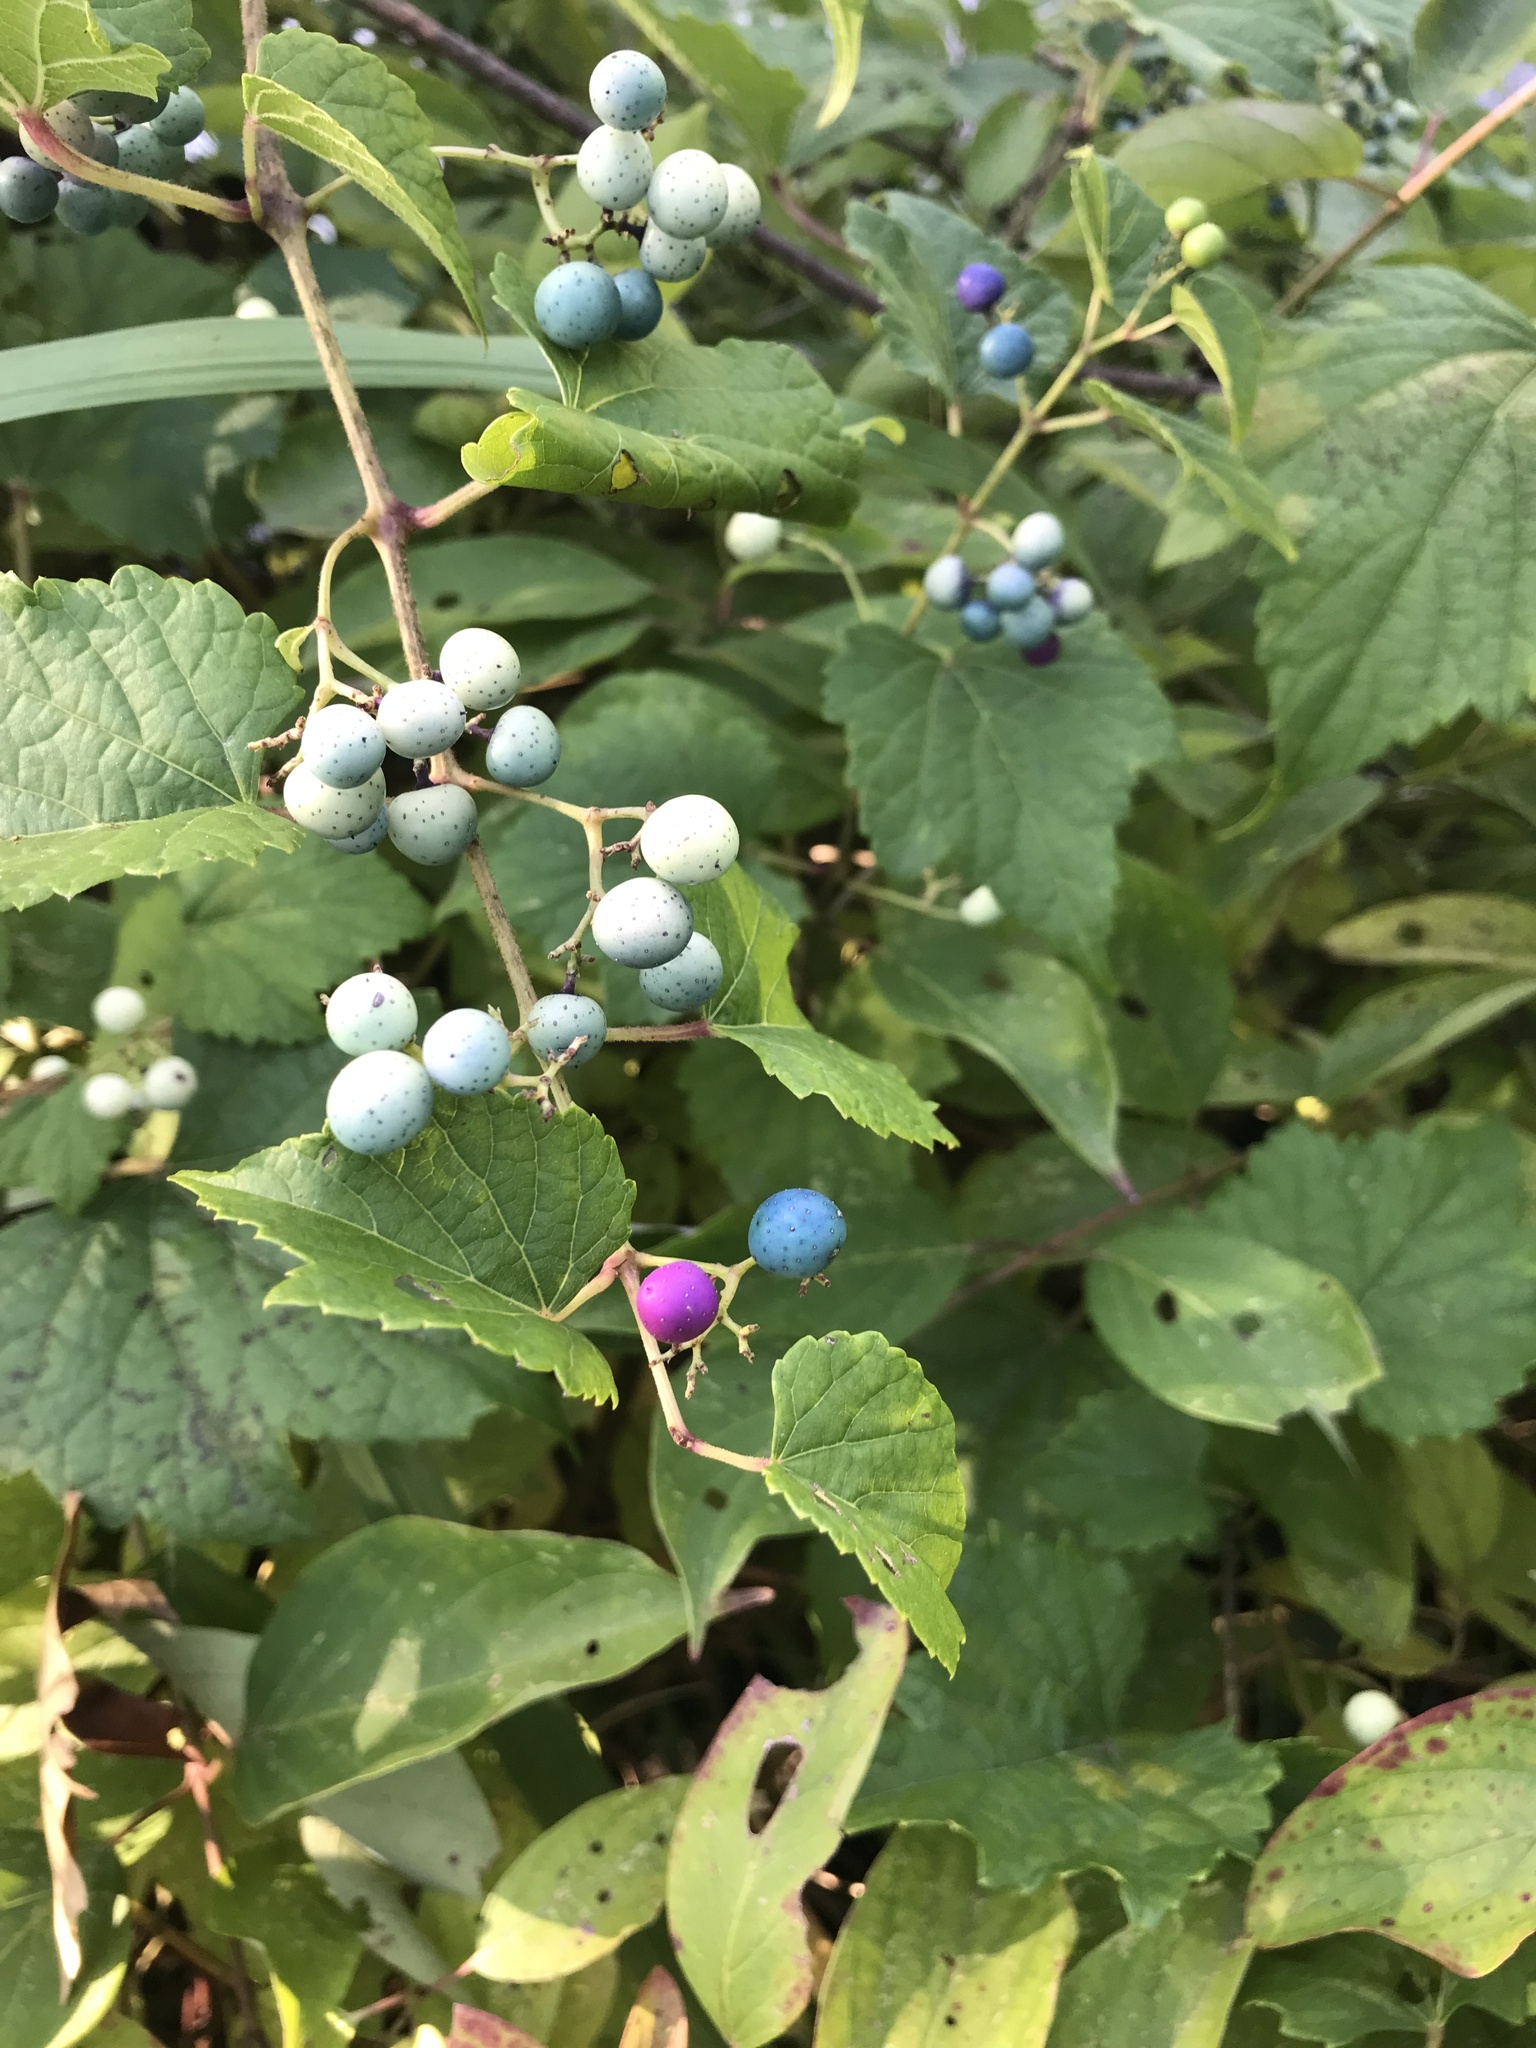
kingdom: Plantae
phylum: Tracheophyta
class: Magnoliopsida
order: Vitales
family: Vitaceae
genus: Ampelopsis
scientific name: Ampelopsis glandulosa
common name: Amur peppervine
